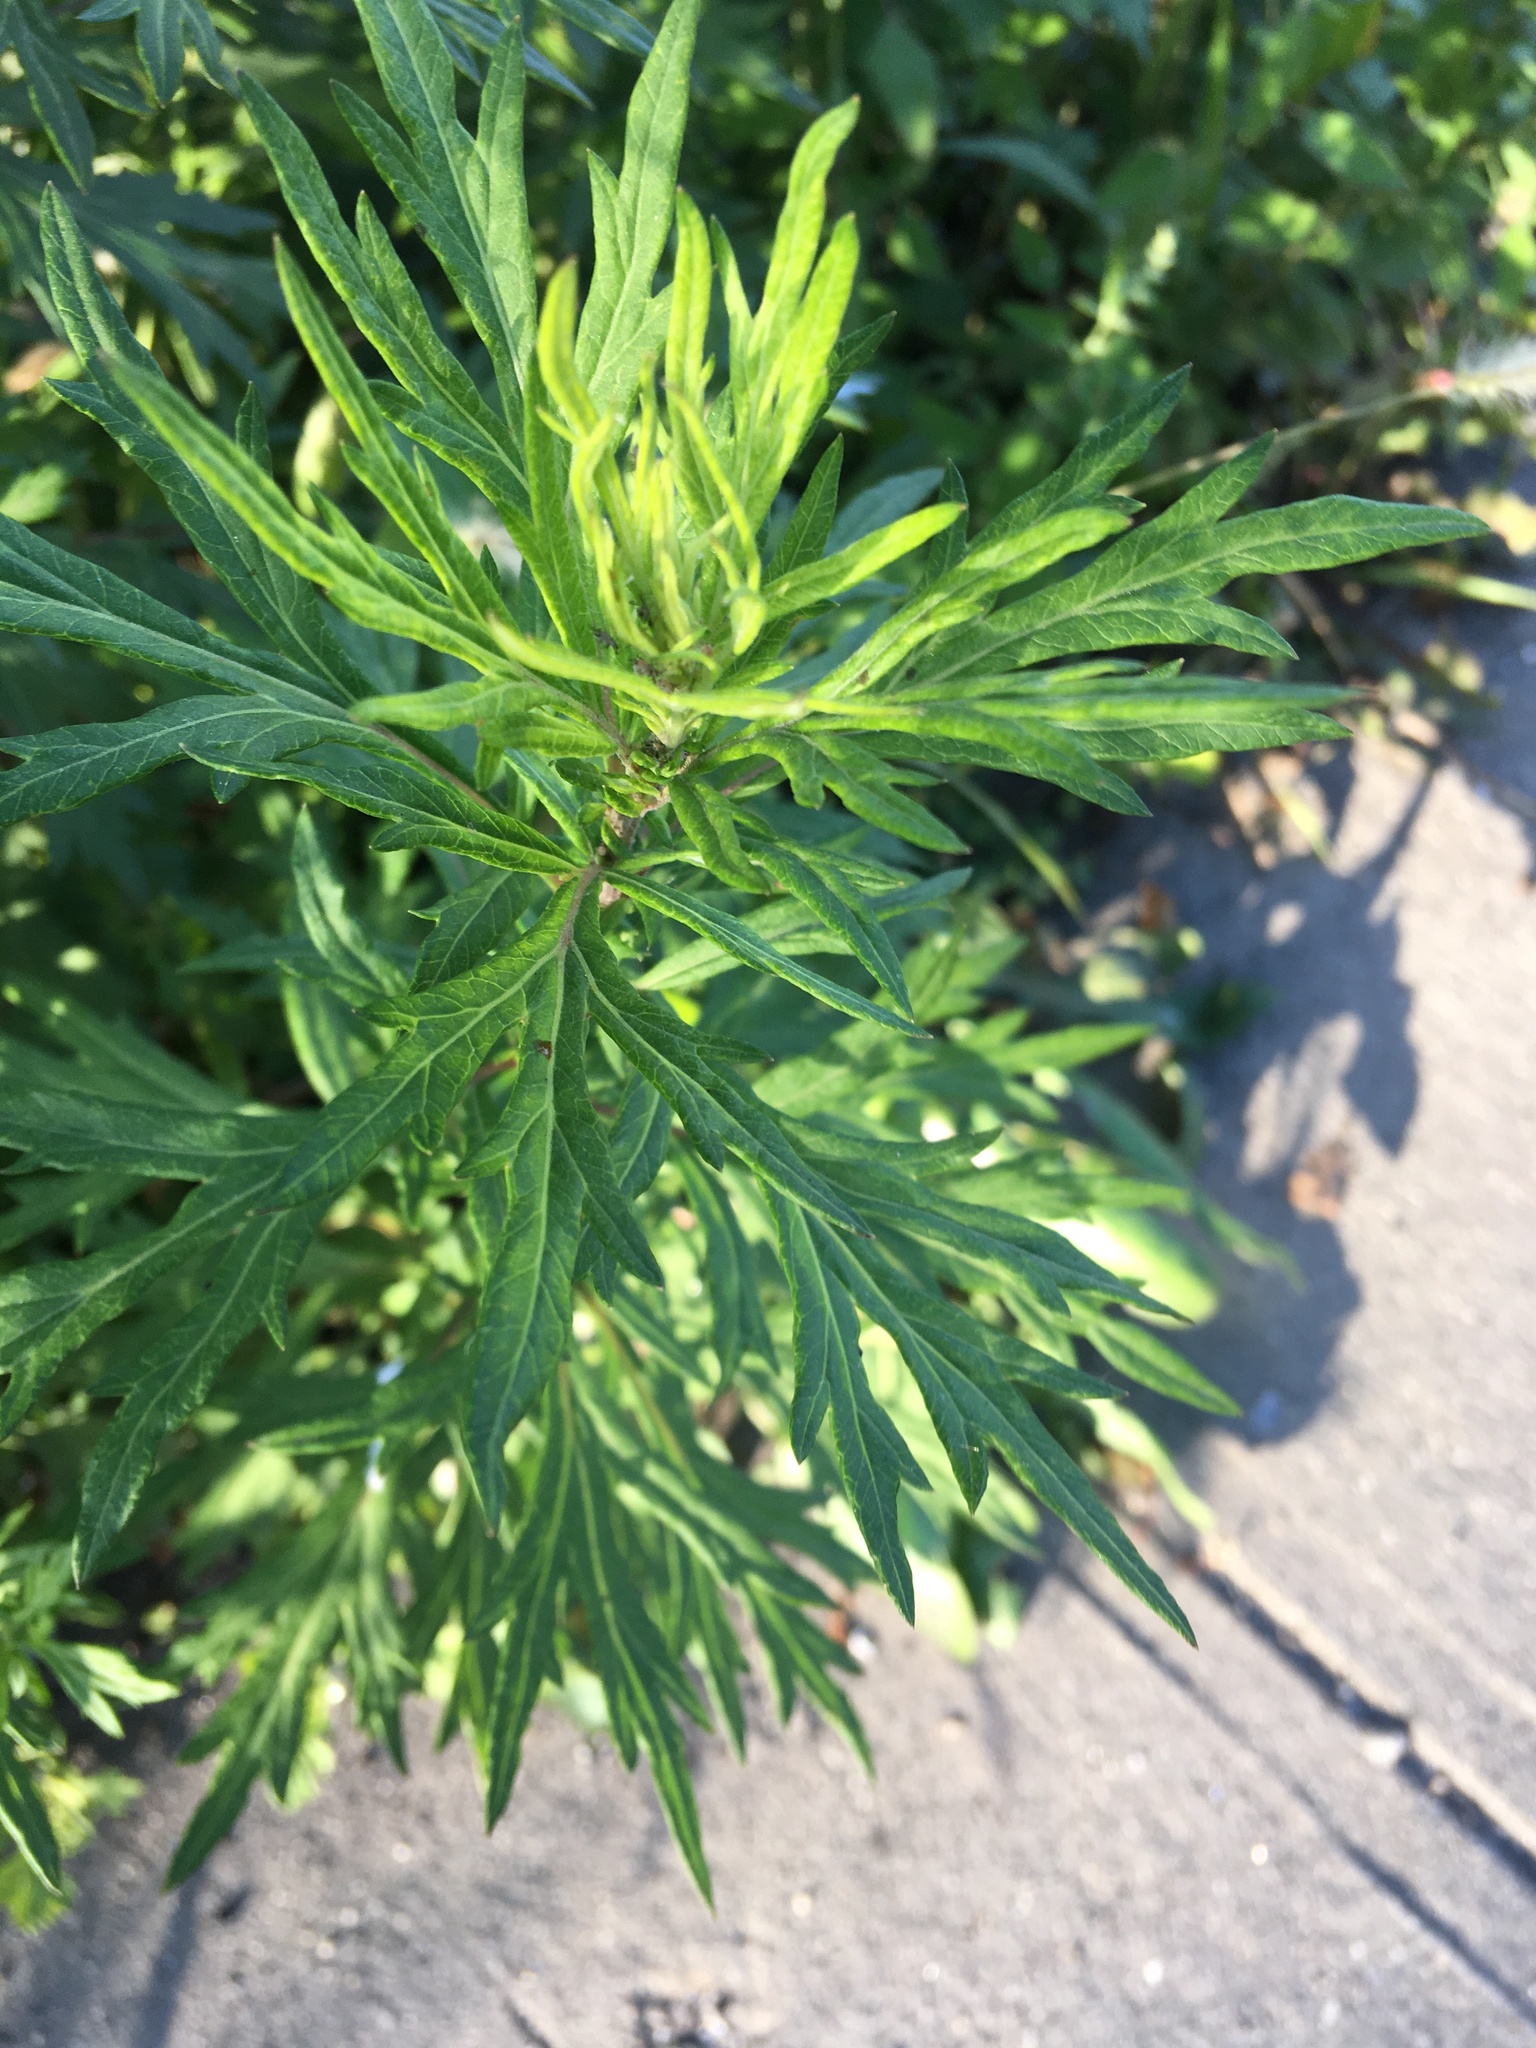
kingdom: Plantae
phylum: Tracheophyta
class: Magnoliopsida
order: Asterales
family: Asteraceae
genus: Artemisia
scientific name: Artemisia vulgaris
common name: Mugwort
